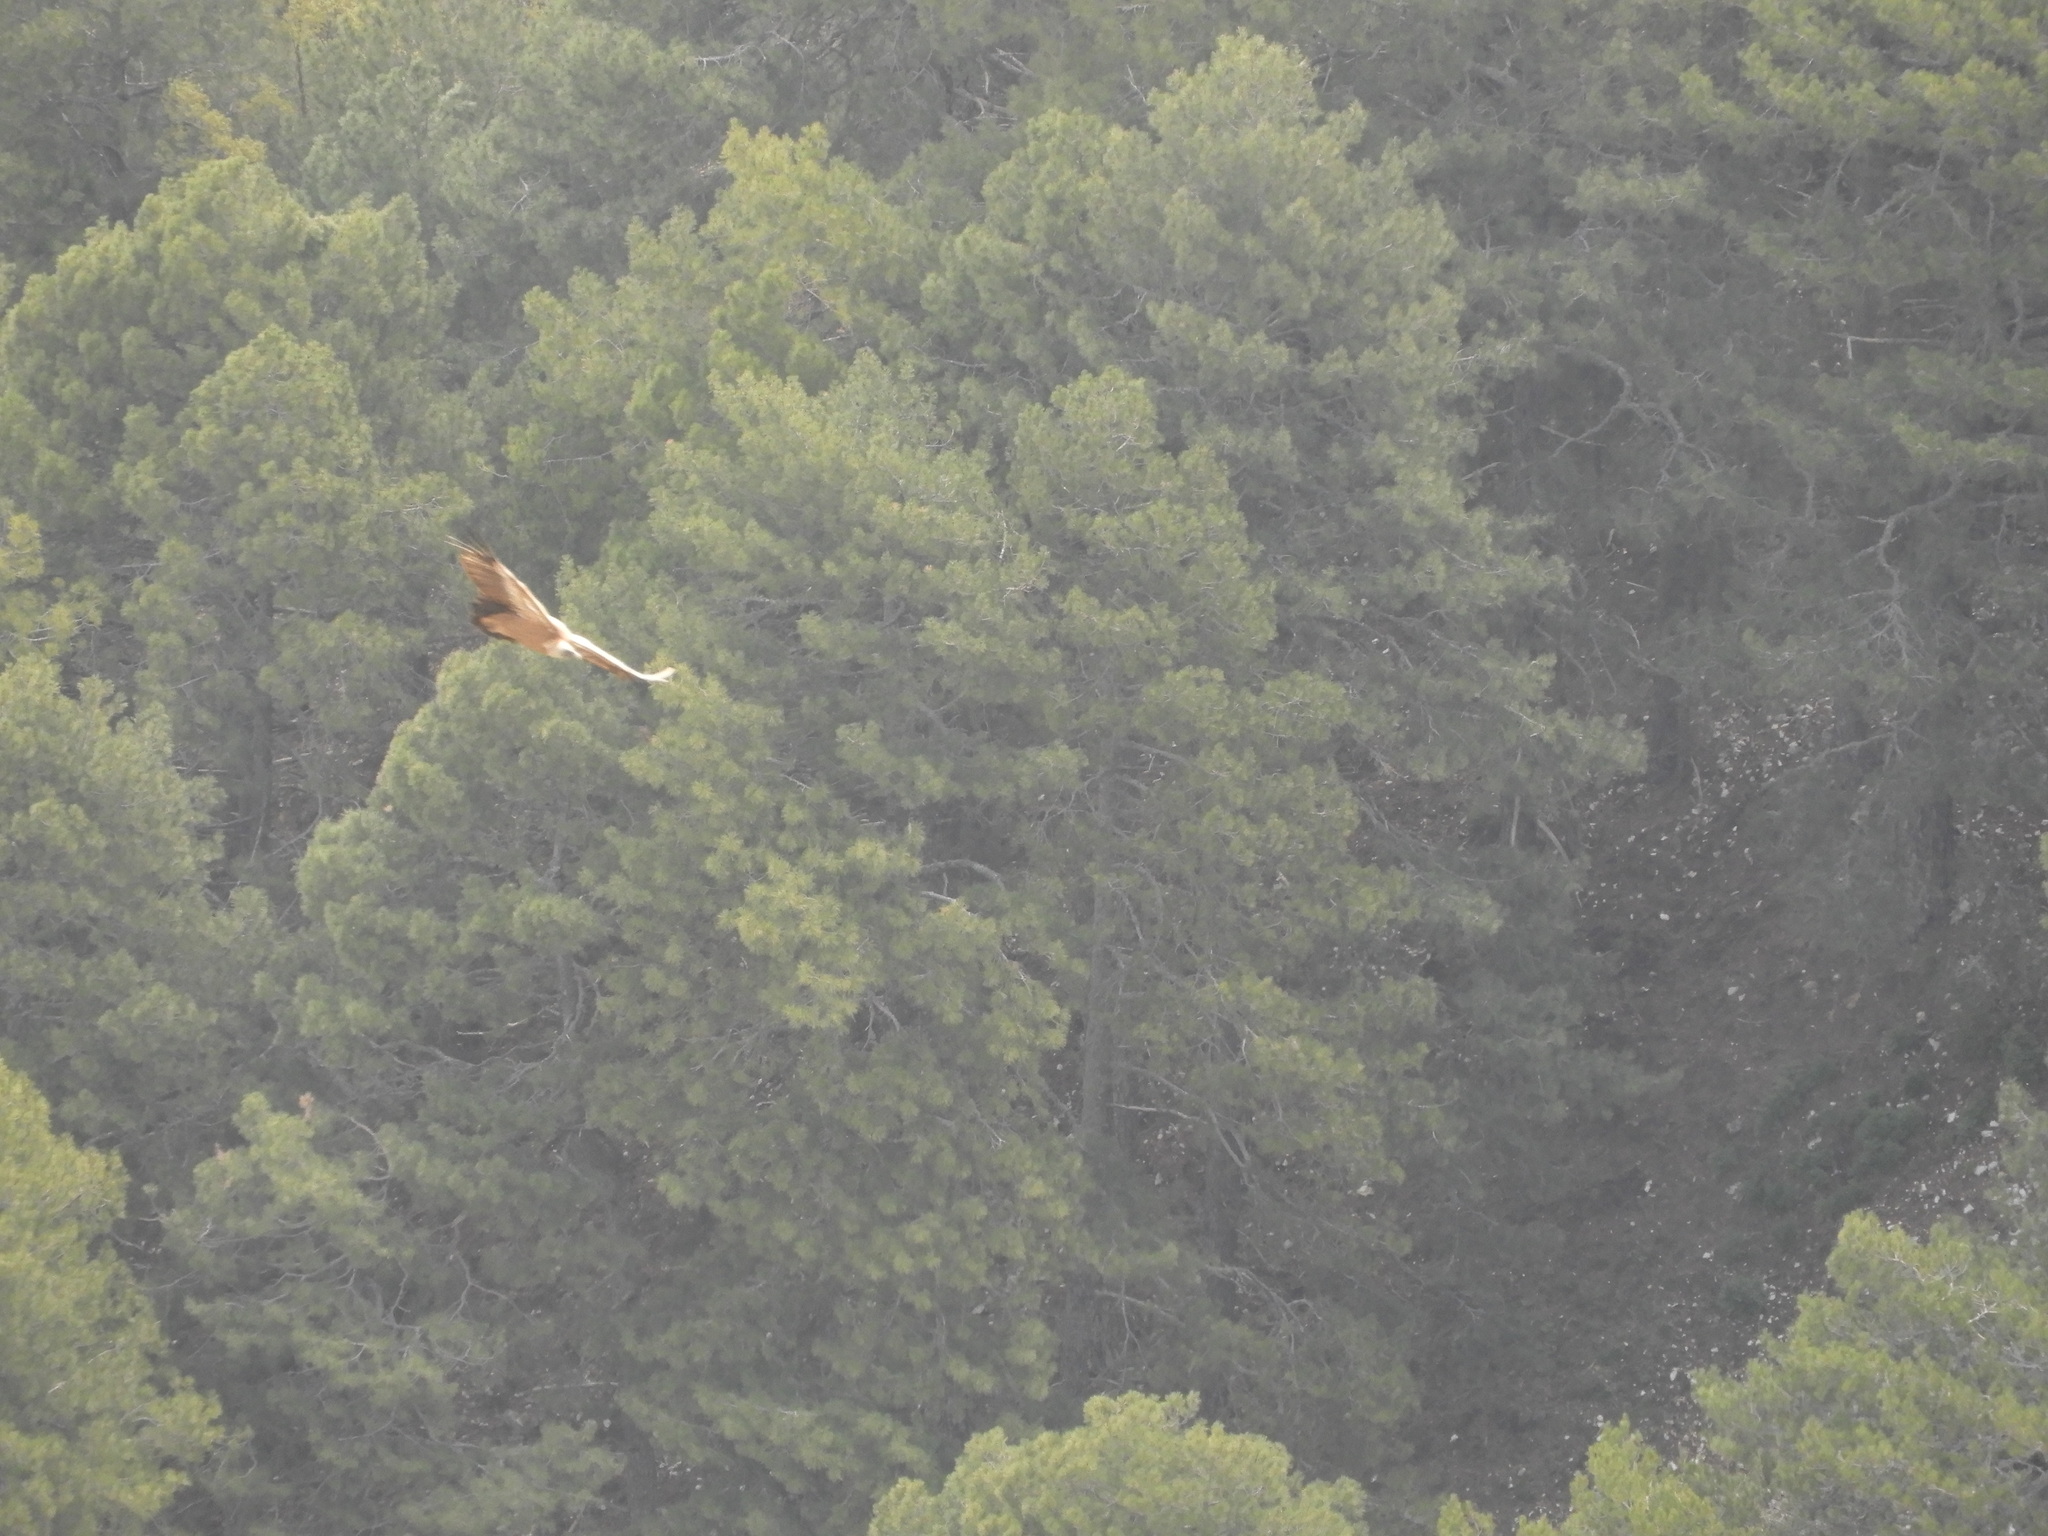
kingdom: Animalia
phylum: Chordata
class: Aves
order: Accipitriformes
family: Accipitridae
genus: Gyps
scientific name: Gyps fulvus
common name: Griffon vulture
